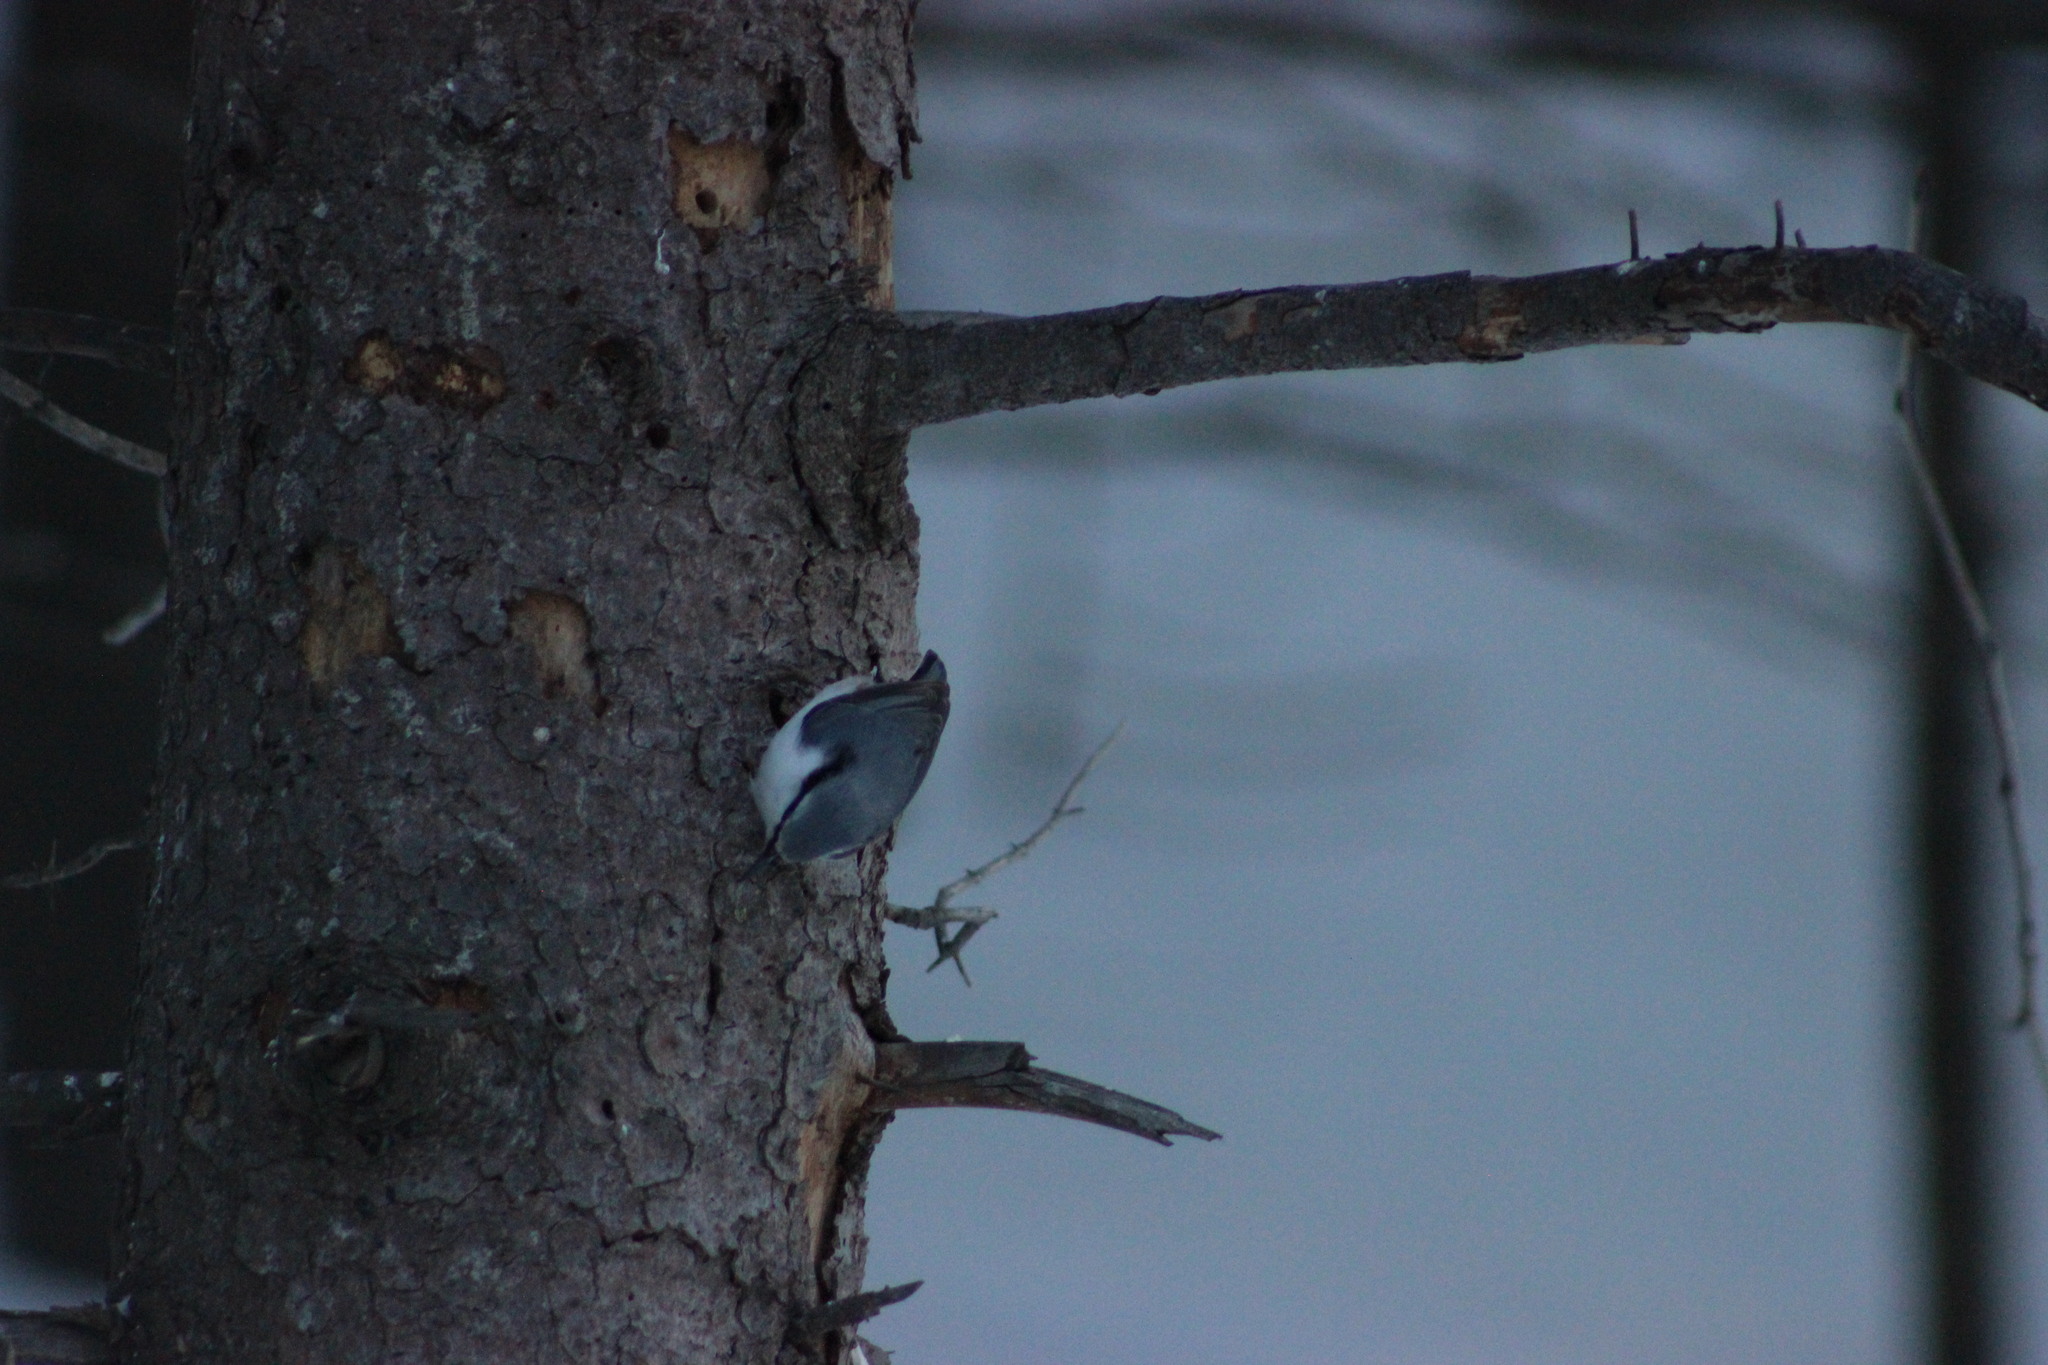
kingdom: Animalia
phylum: Chordata
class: Aves
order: Passeriformes
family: Sittidae
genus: Sitta
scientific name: Sitta europaea
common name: Eurasian nuthatch
